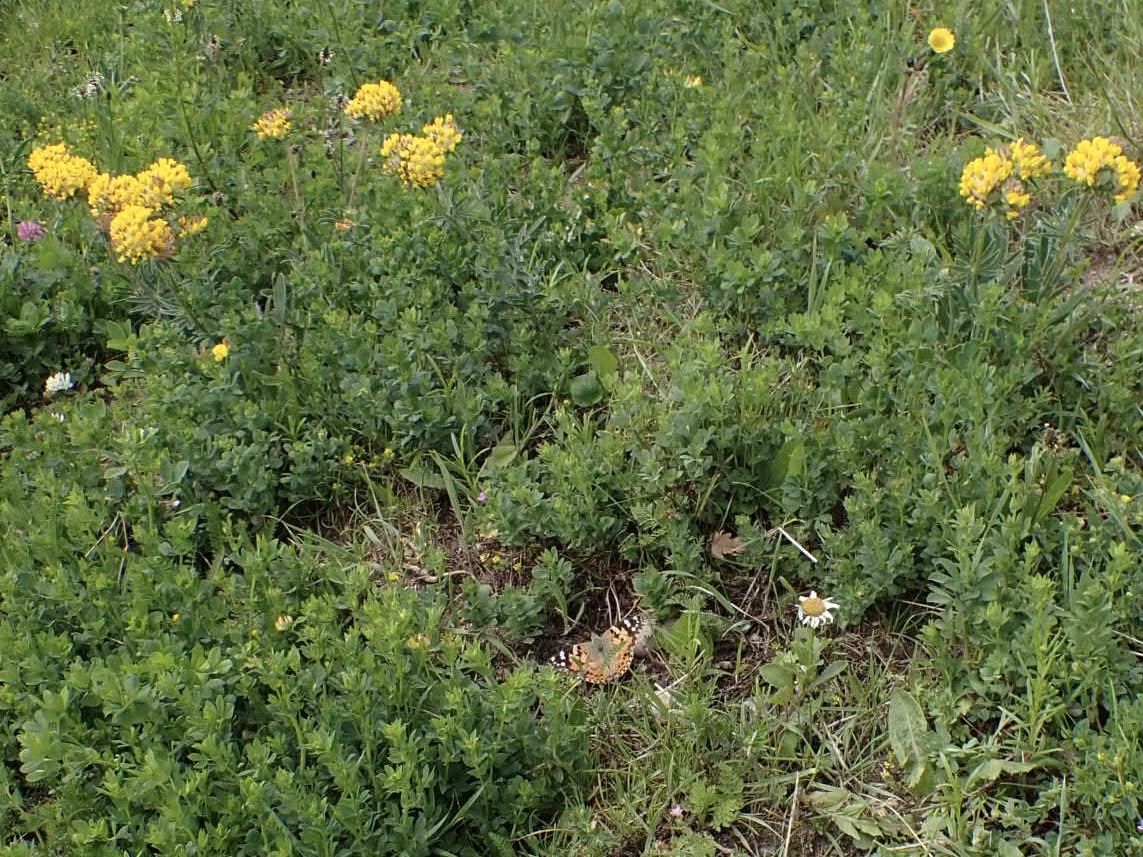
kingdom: Animalia
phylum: Arthropoda
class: Insecta
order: Lepidoptera
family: Nymphalidae
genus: Vanessa
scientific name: Vanessa cardui
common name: Painted lady
